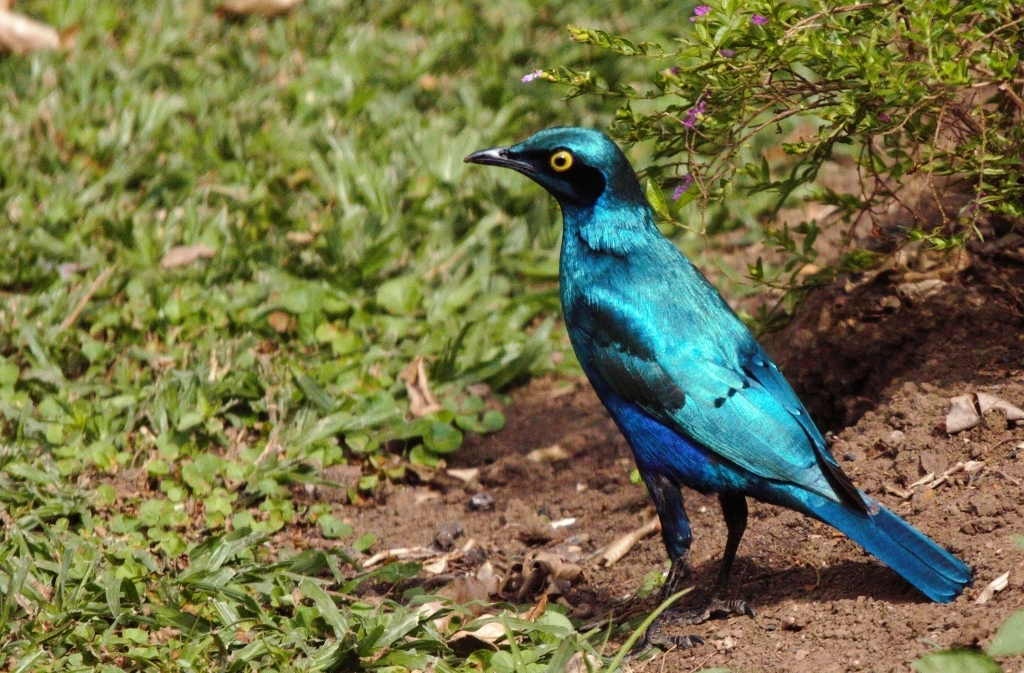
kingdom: Animalia
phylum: Chordata
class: Aves
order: Passeriformes
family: Sturnidae
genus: Lamprotornis
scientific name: Lamprotornis chalybaeus
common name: Greater blue-eared starling
